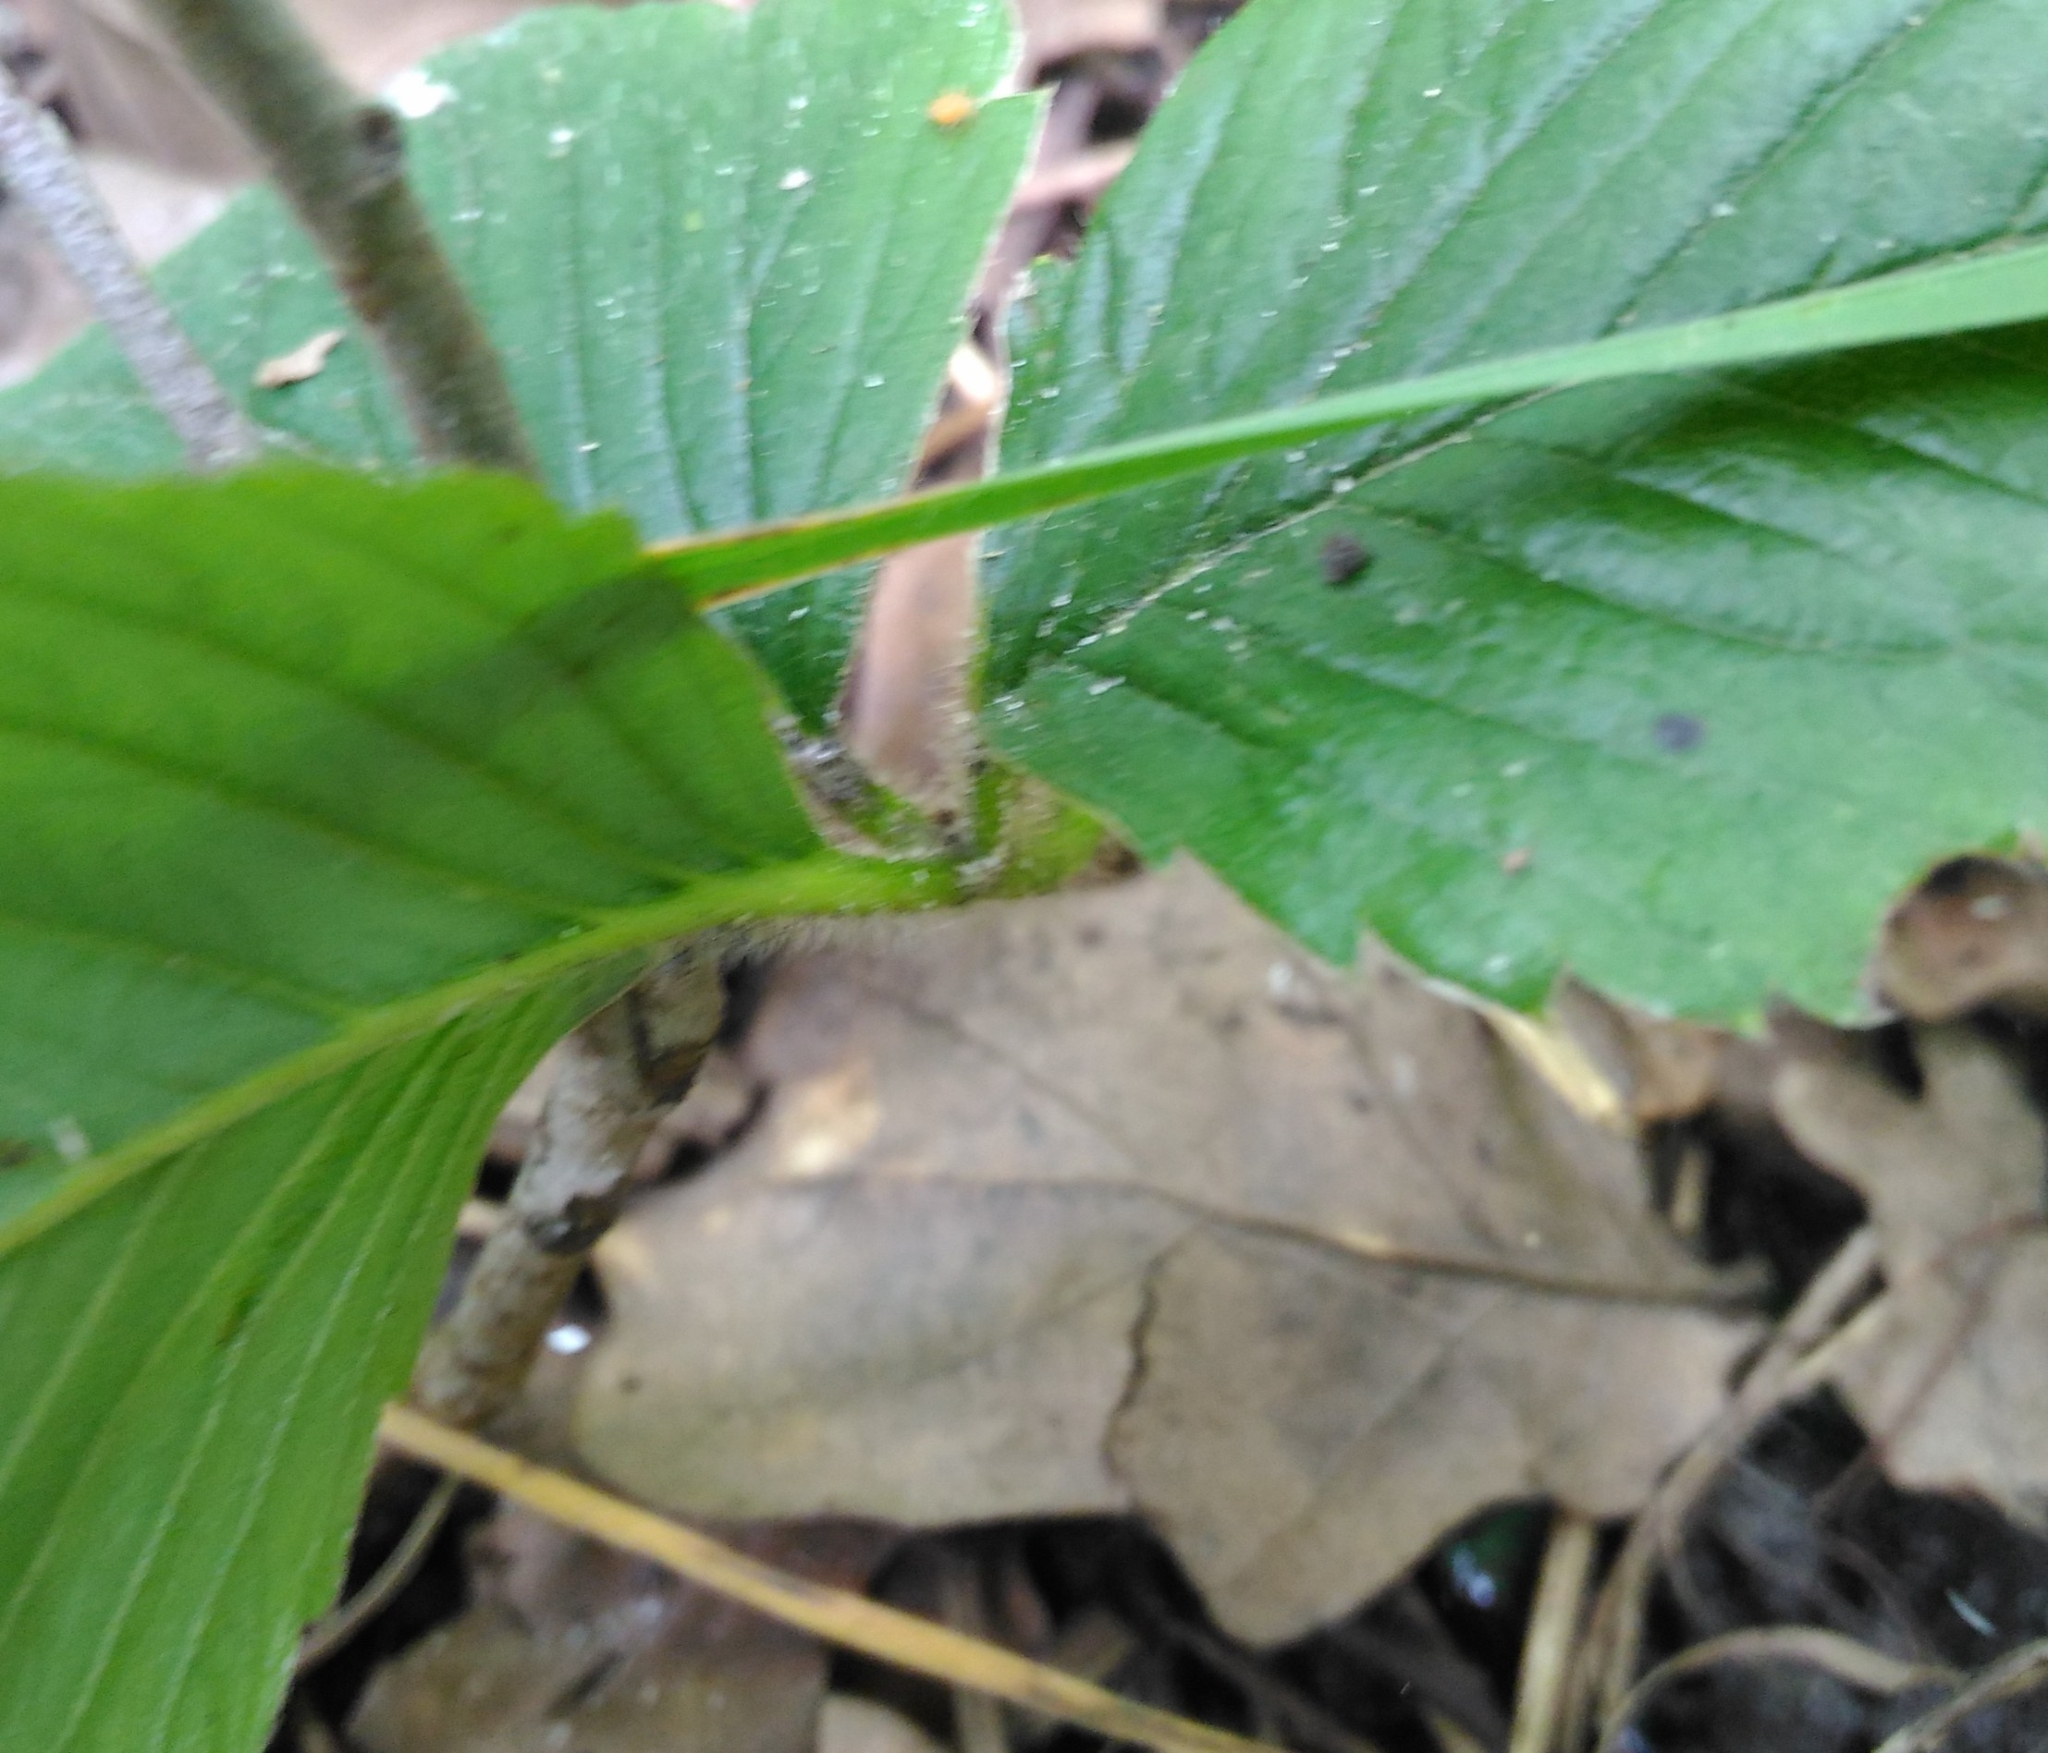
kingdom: Plantae
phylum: Tracheophyta
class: Magnoliopsida
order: Rosales
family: Rosaceae
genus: Fragaria
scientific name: Fragaria moschata
